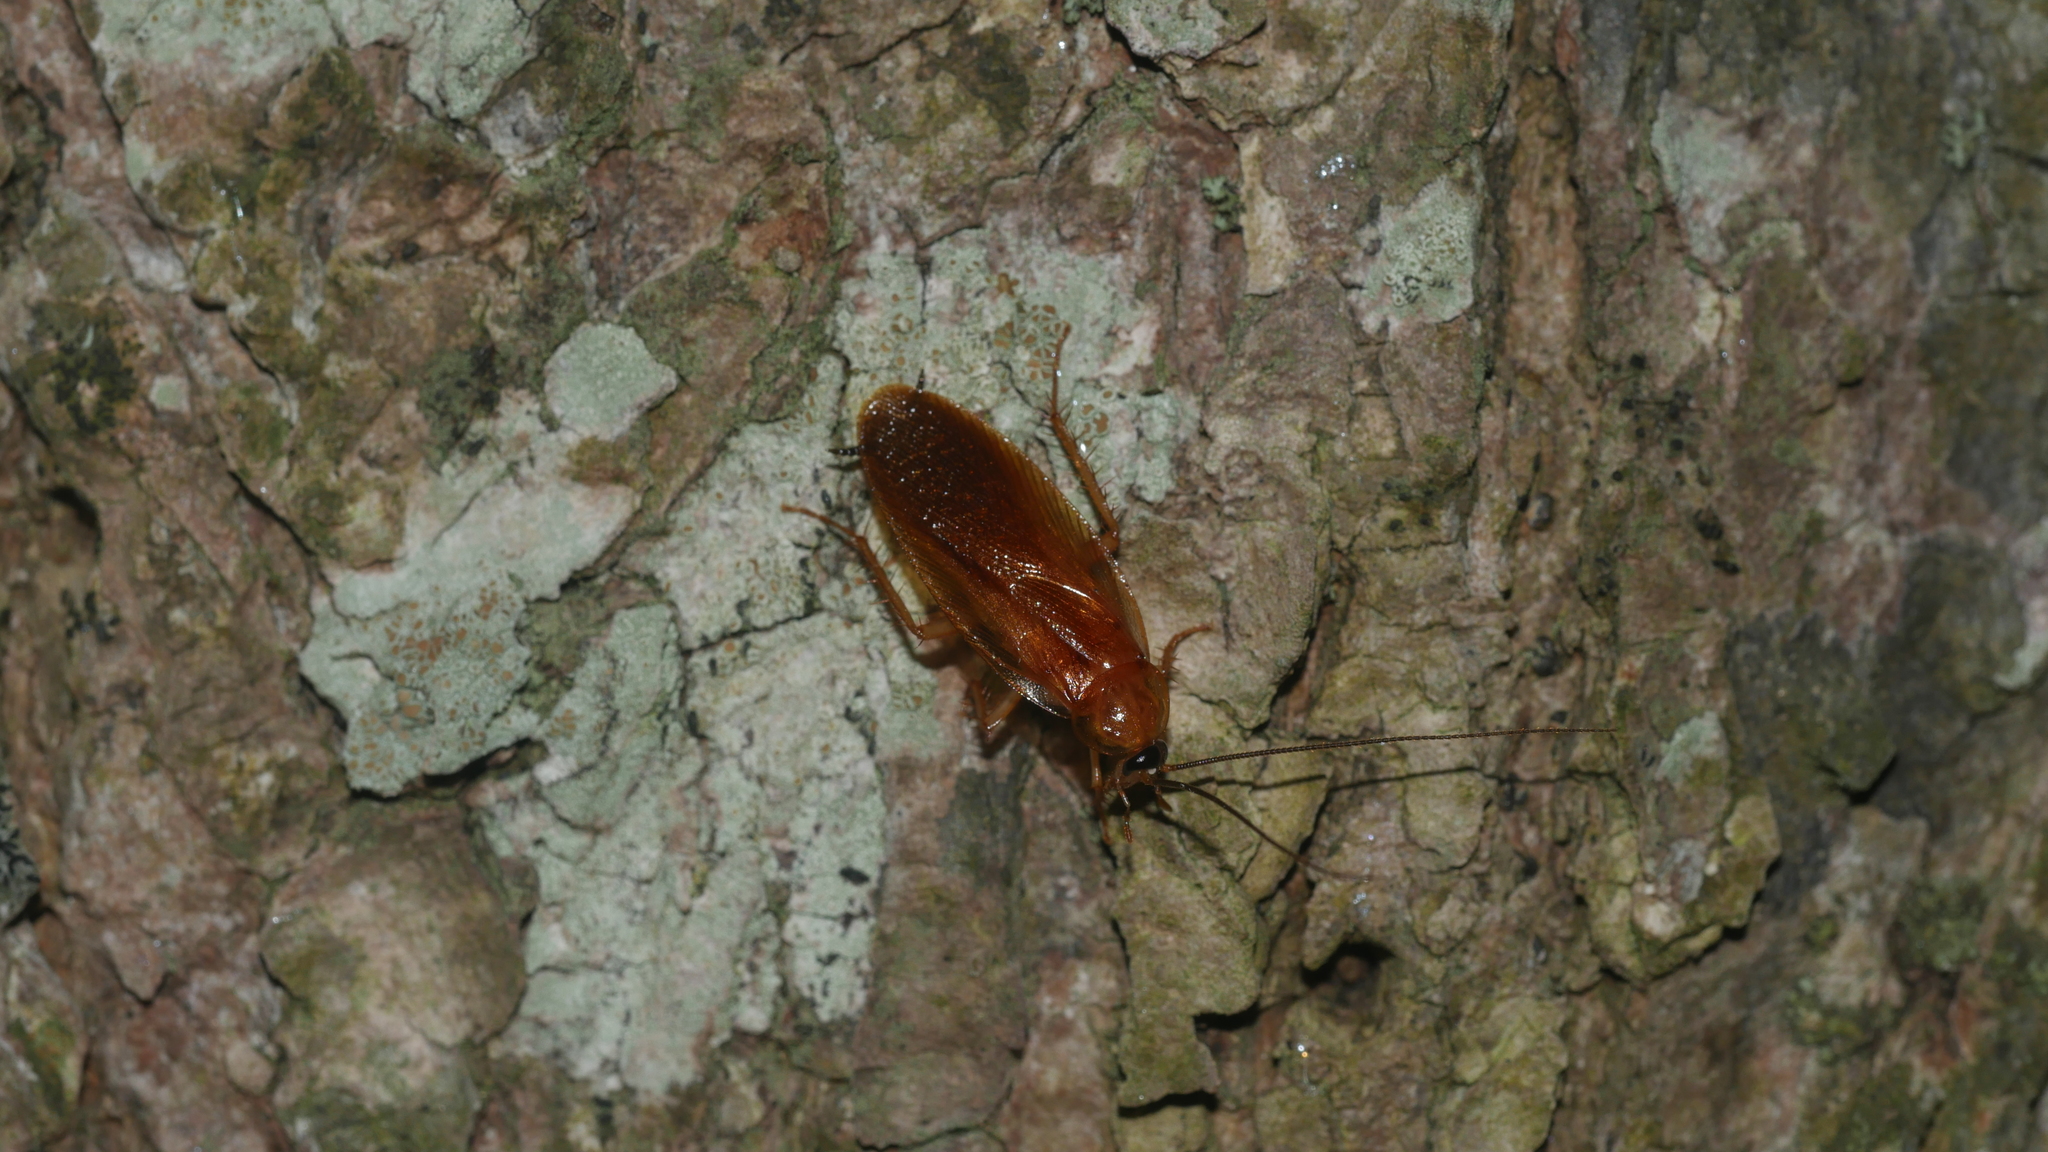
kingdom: Animalia
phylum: Arthropoda
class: Insecta
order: Blattodea
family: Ectobiidae
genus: Parcoblatta
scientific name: Parcoblatta virginica
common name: Virginia wood cockroach
